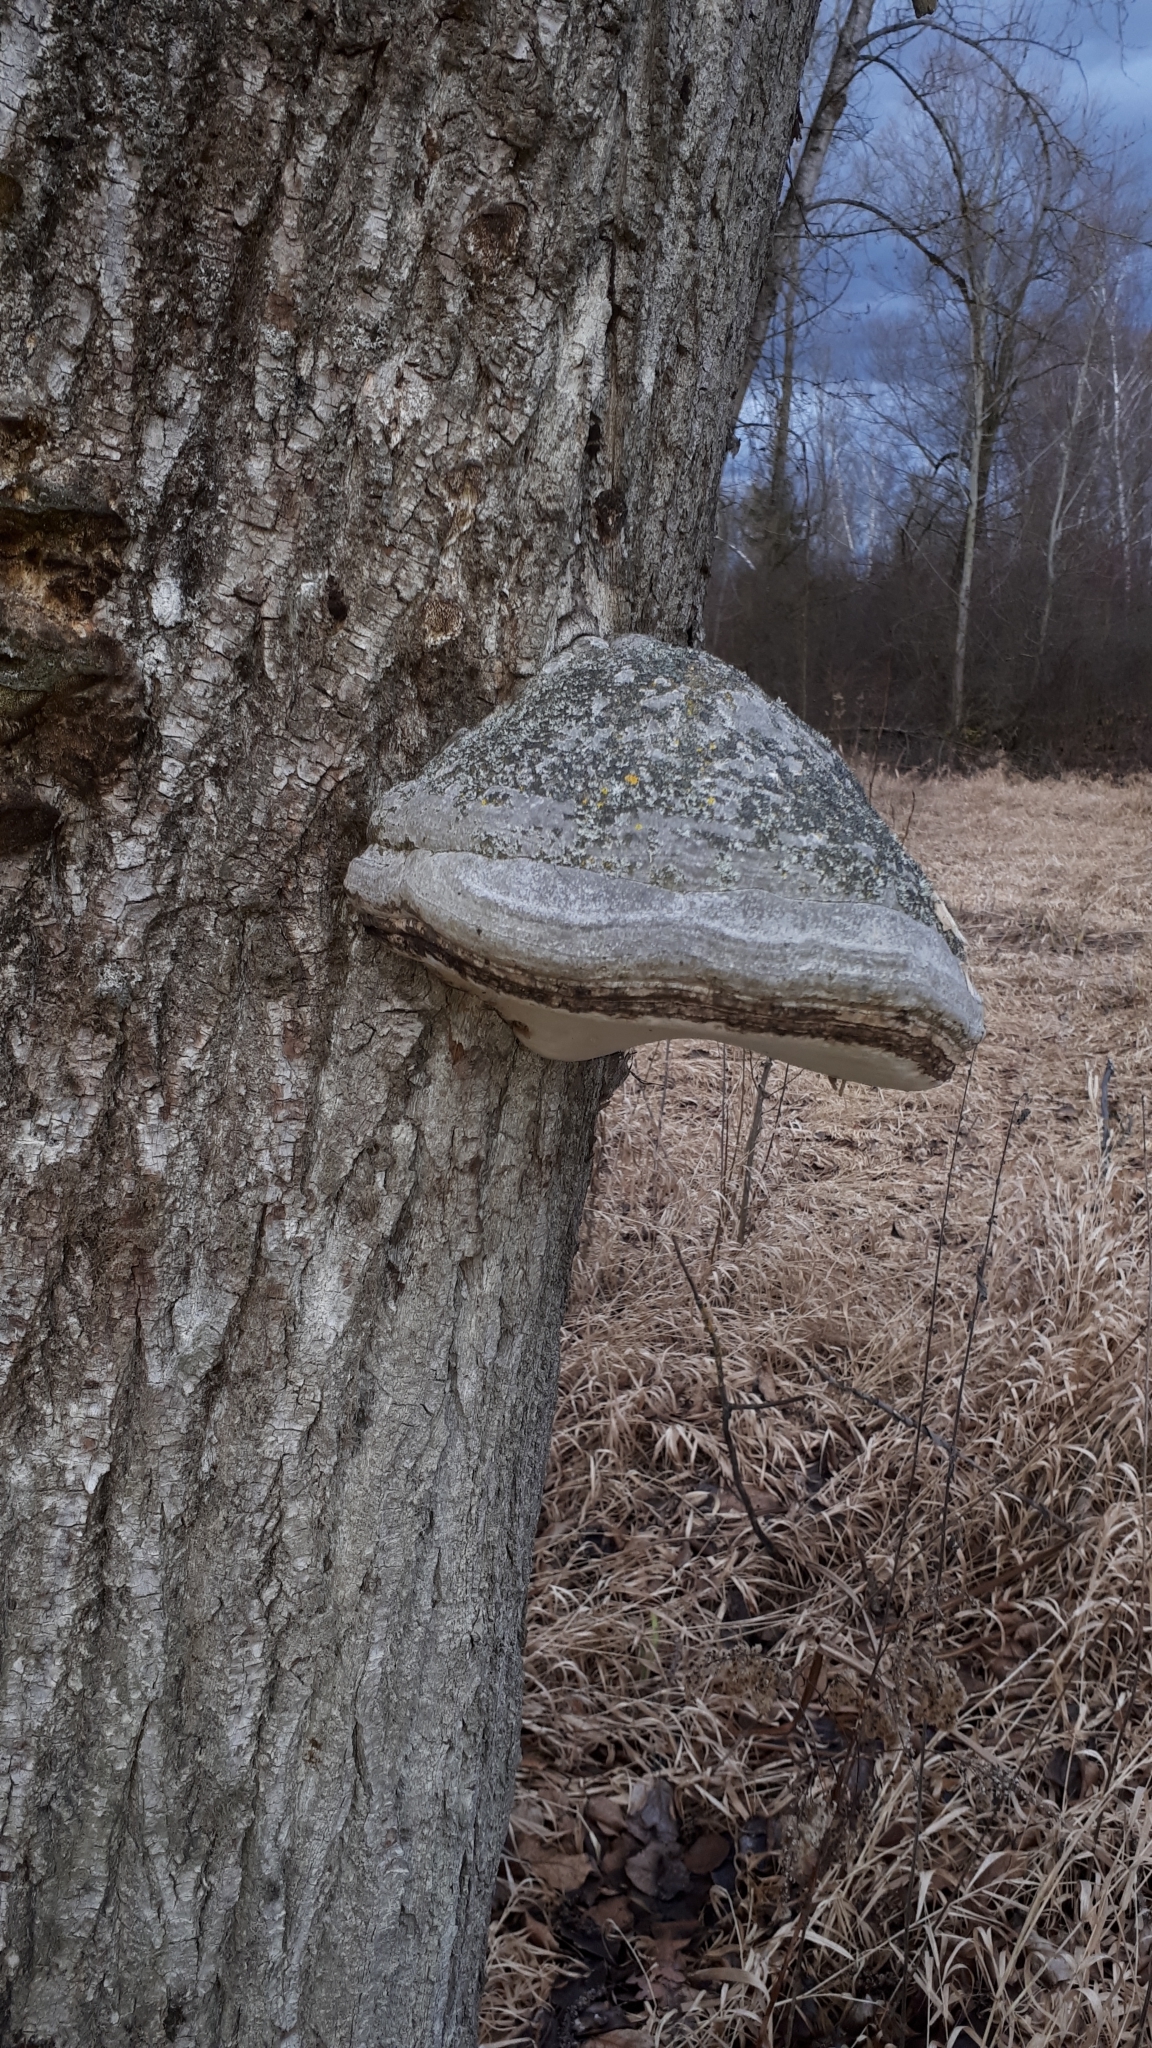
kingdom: Fungi
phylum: Basidiomycota
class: Agaricomycetes
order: Polyporales
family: Polyporaceae
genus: Fomes
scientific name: Fomes fomentarius
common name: Hoof fungus
